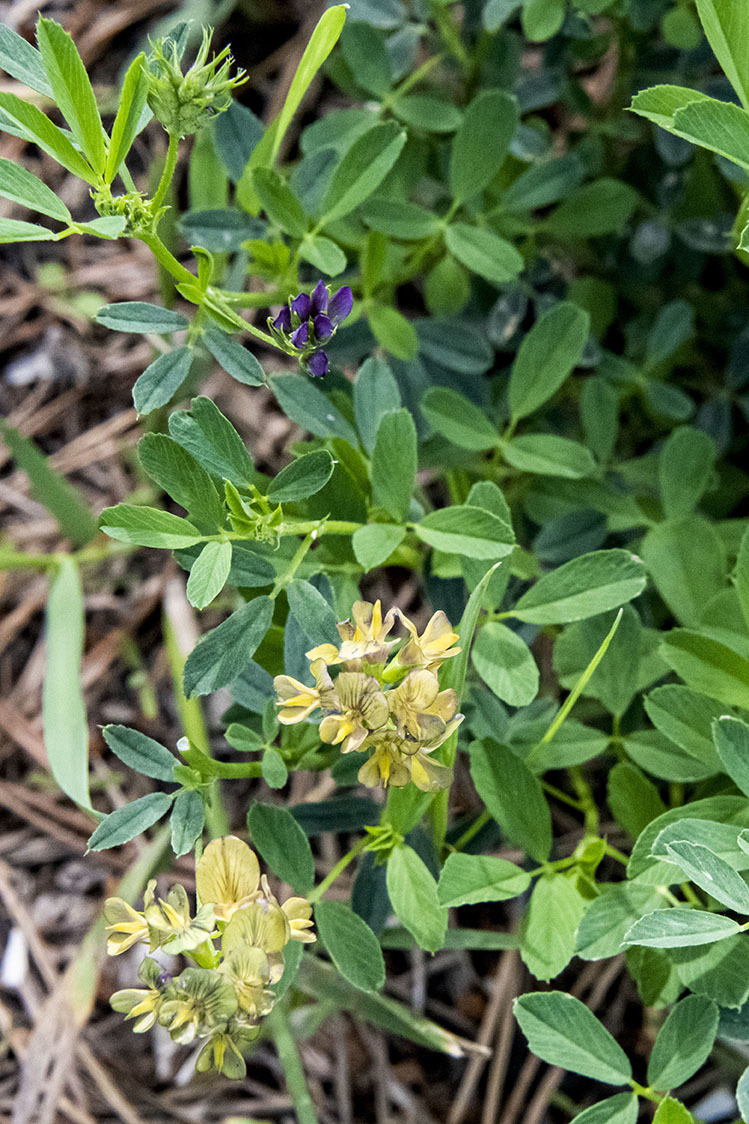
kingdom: Plantae
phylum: Tracheophyta
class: Magnoliopsida
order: Fabales
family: Fabaceae
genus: Medicago
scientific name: Medicago
